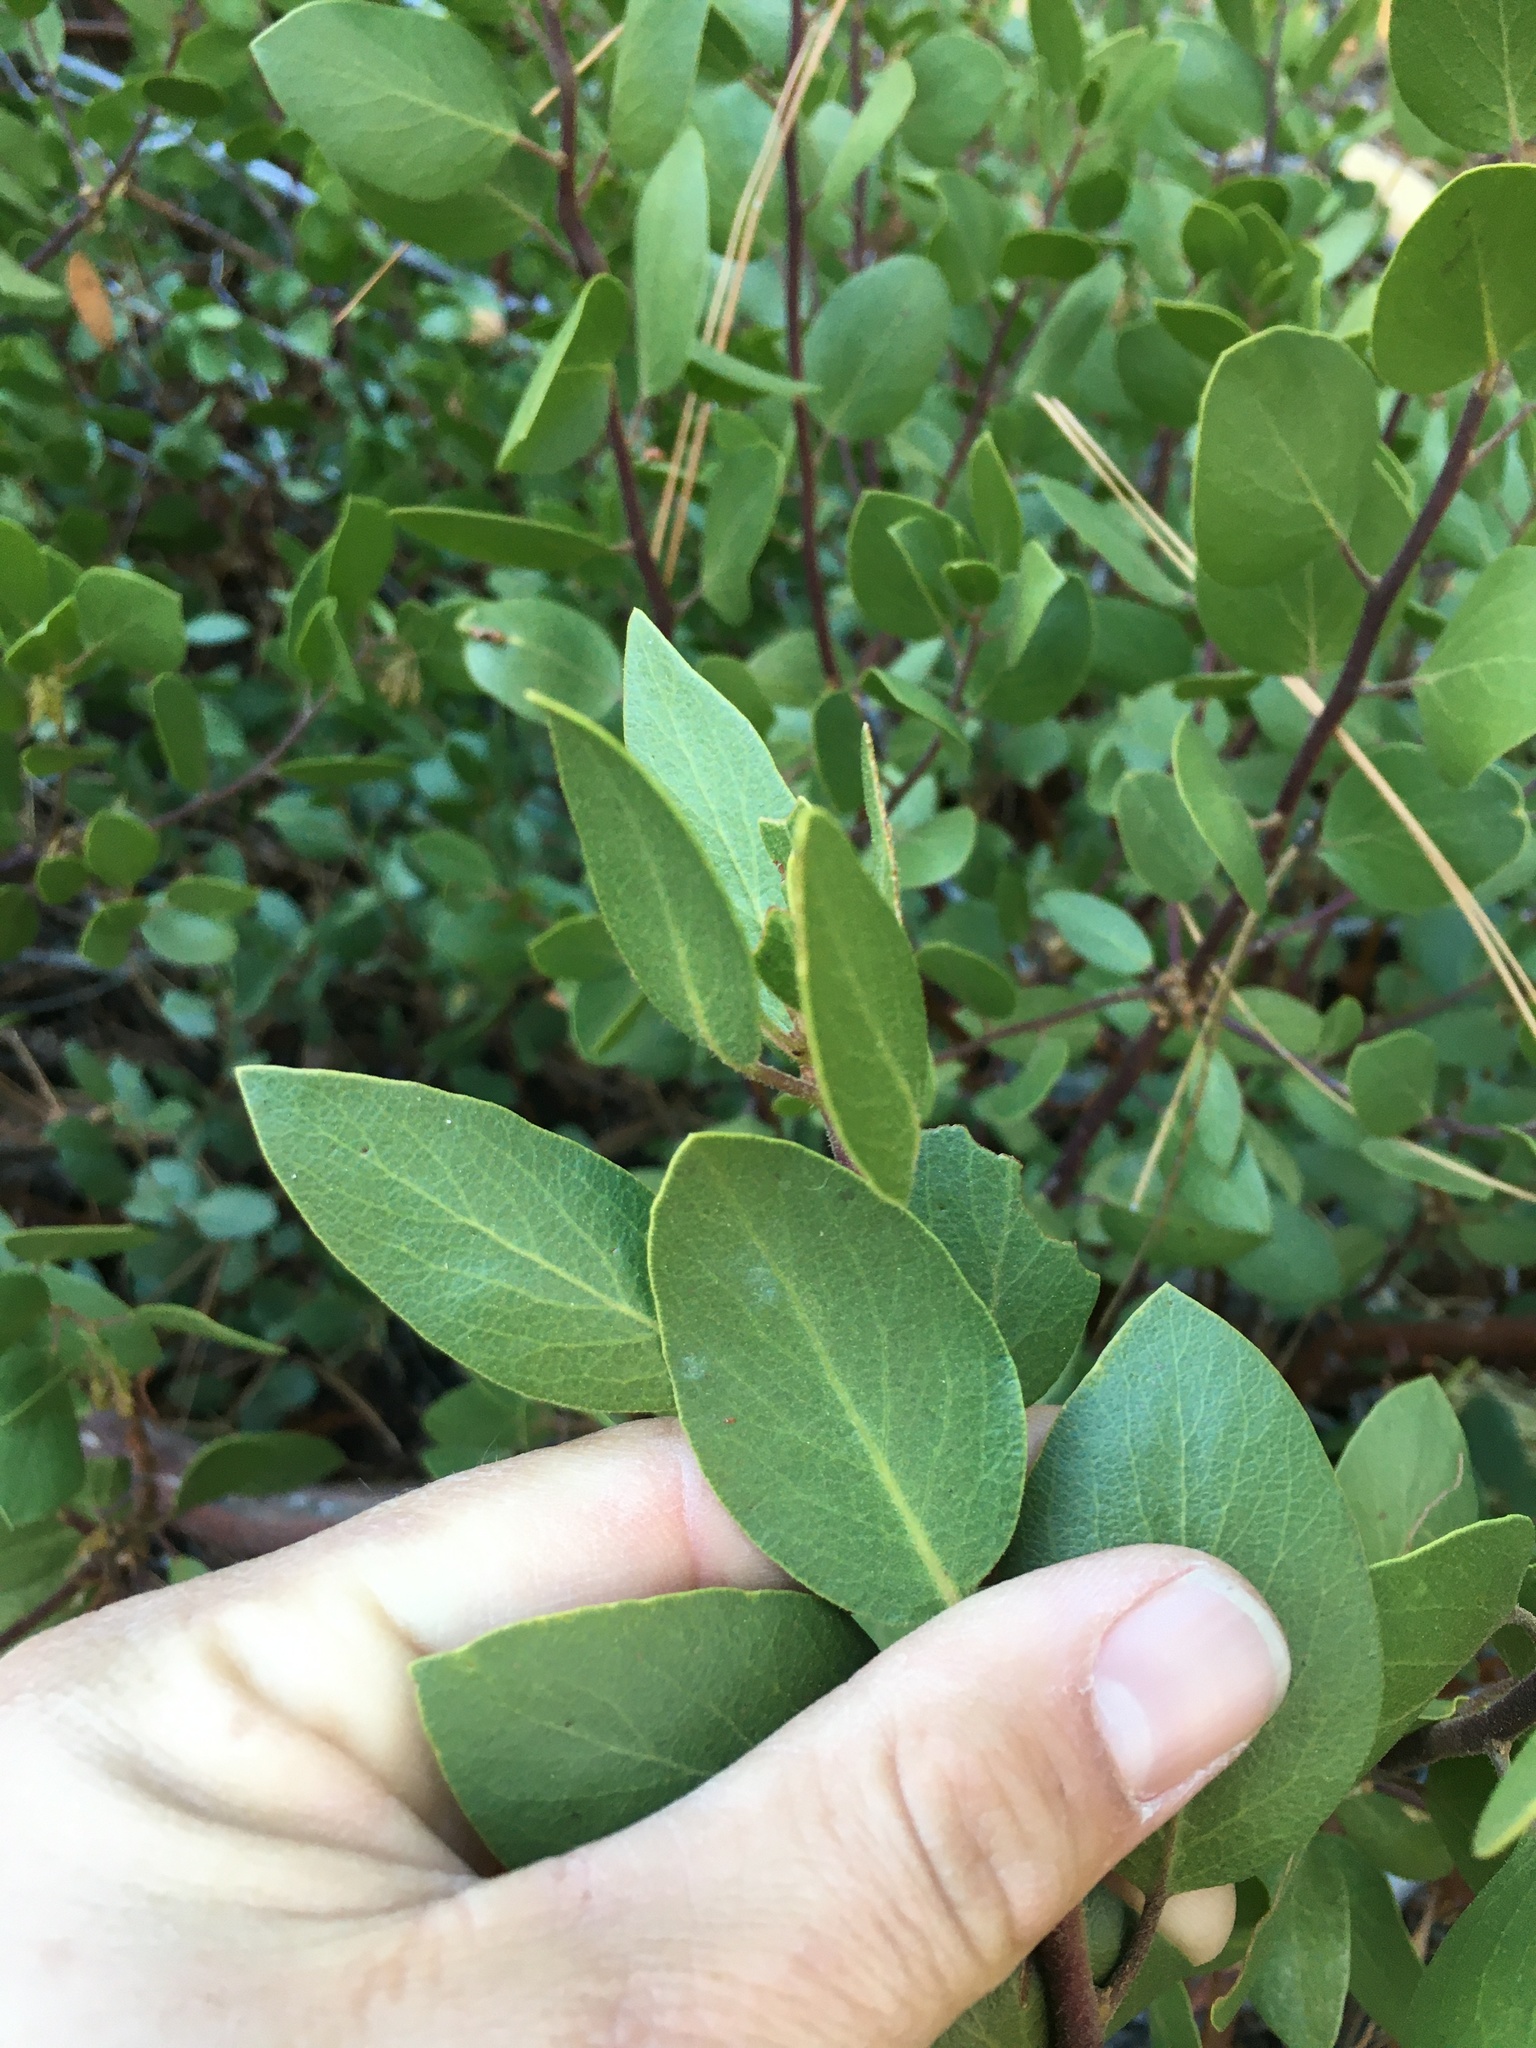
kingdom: Plantae
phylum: Tracheophyta
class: Magnoliopsida
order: Ericales
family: Ericaceae
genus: Arctostaphylos
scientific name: Arctostaphylos patula
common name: Green-leaf manzanita
